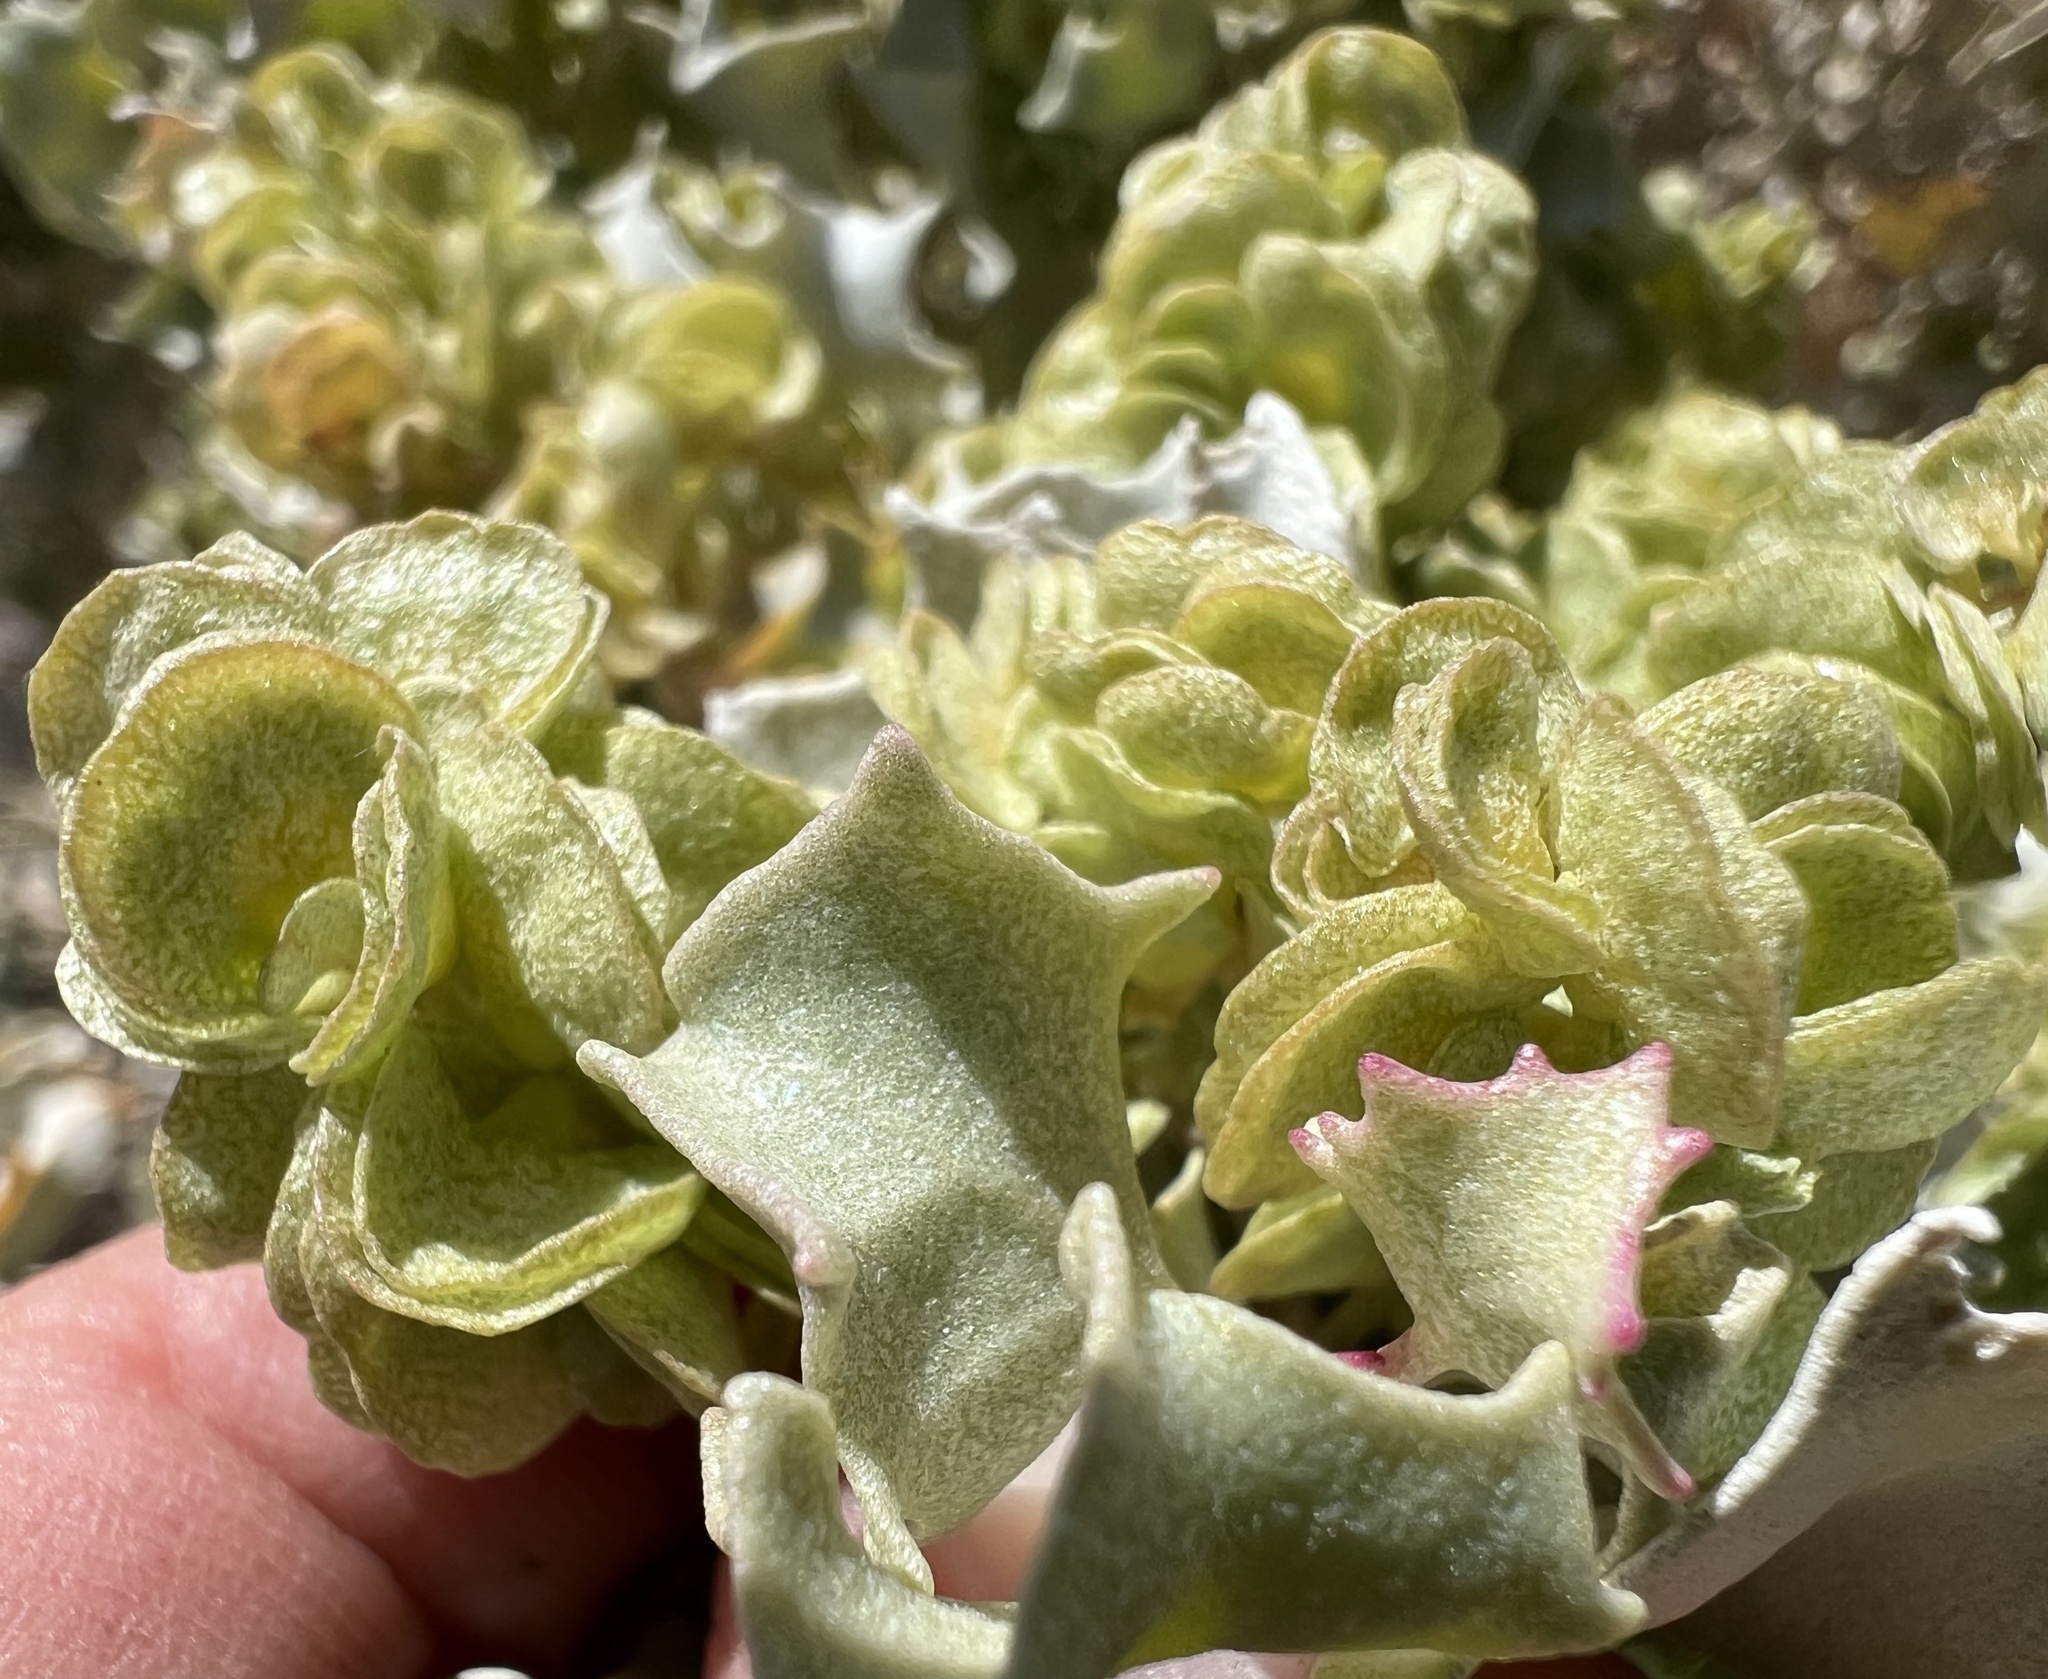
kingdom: Plantae
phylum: Tracheophyta
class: Magnoliopsida
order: Caryophyllales
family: Amaranthaceae
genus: Atriplex
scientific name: Atriplex hymenelytra
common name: Desert-holly
